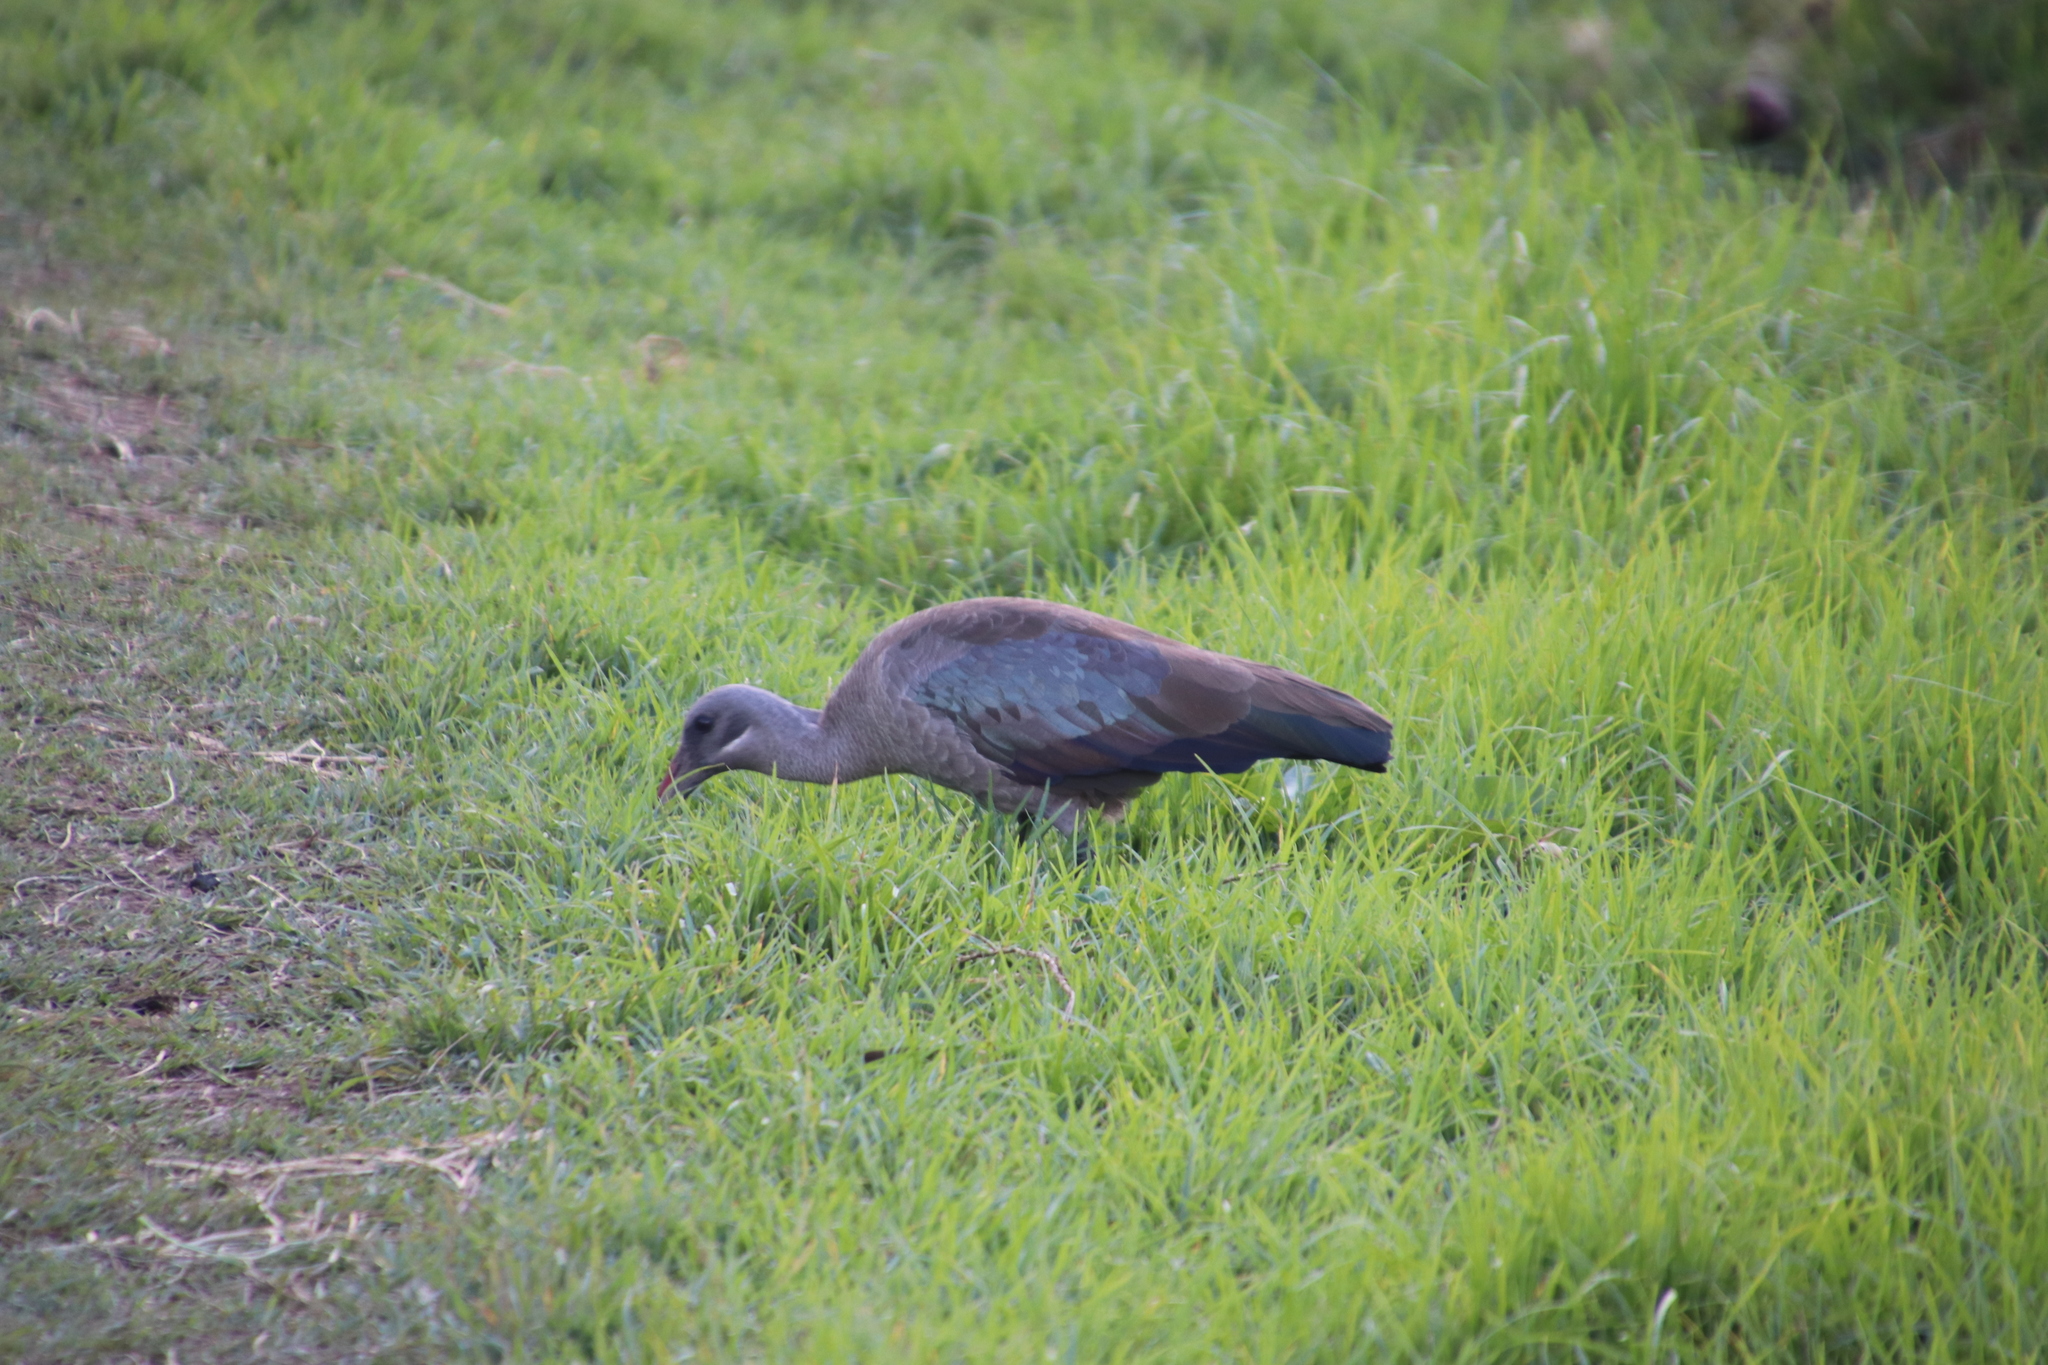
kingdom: Animalia
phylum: Chordata
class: Aves
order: Pelecaniformes
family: Threskiornithidae
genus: Bostrychia
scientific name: Bostrychia hagedash
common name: Hadada ibis
